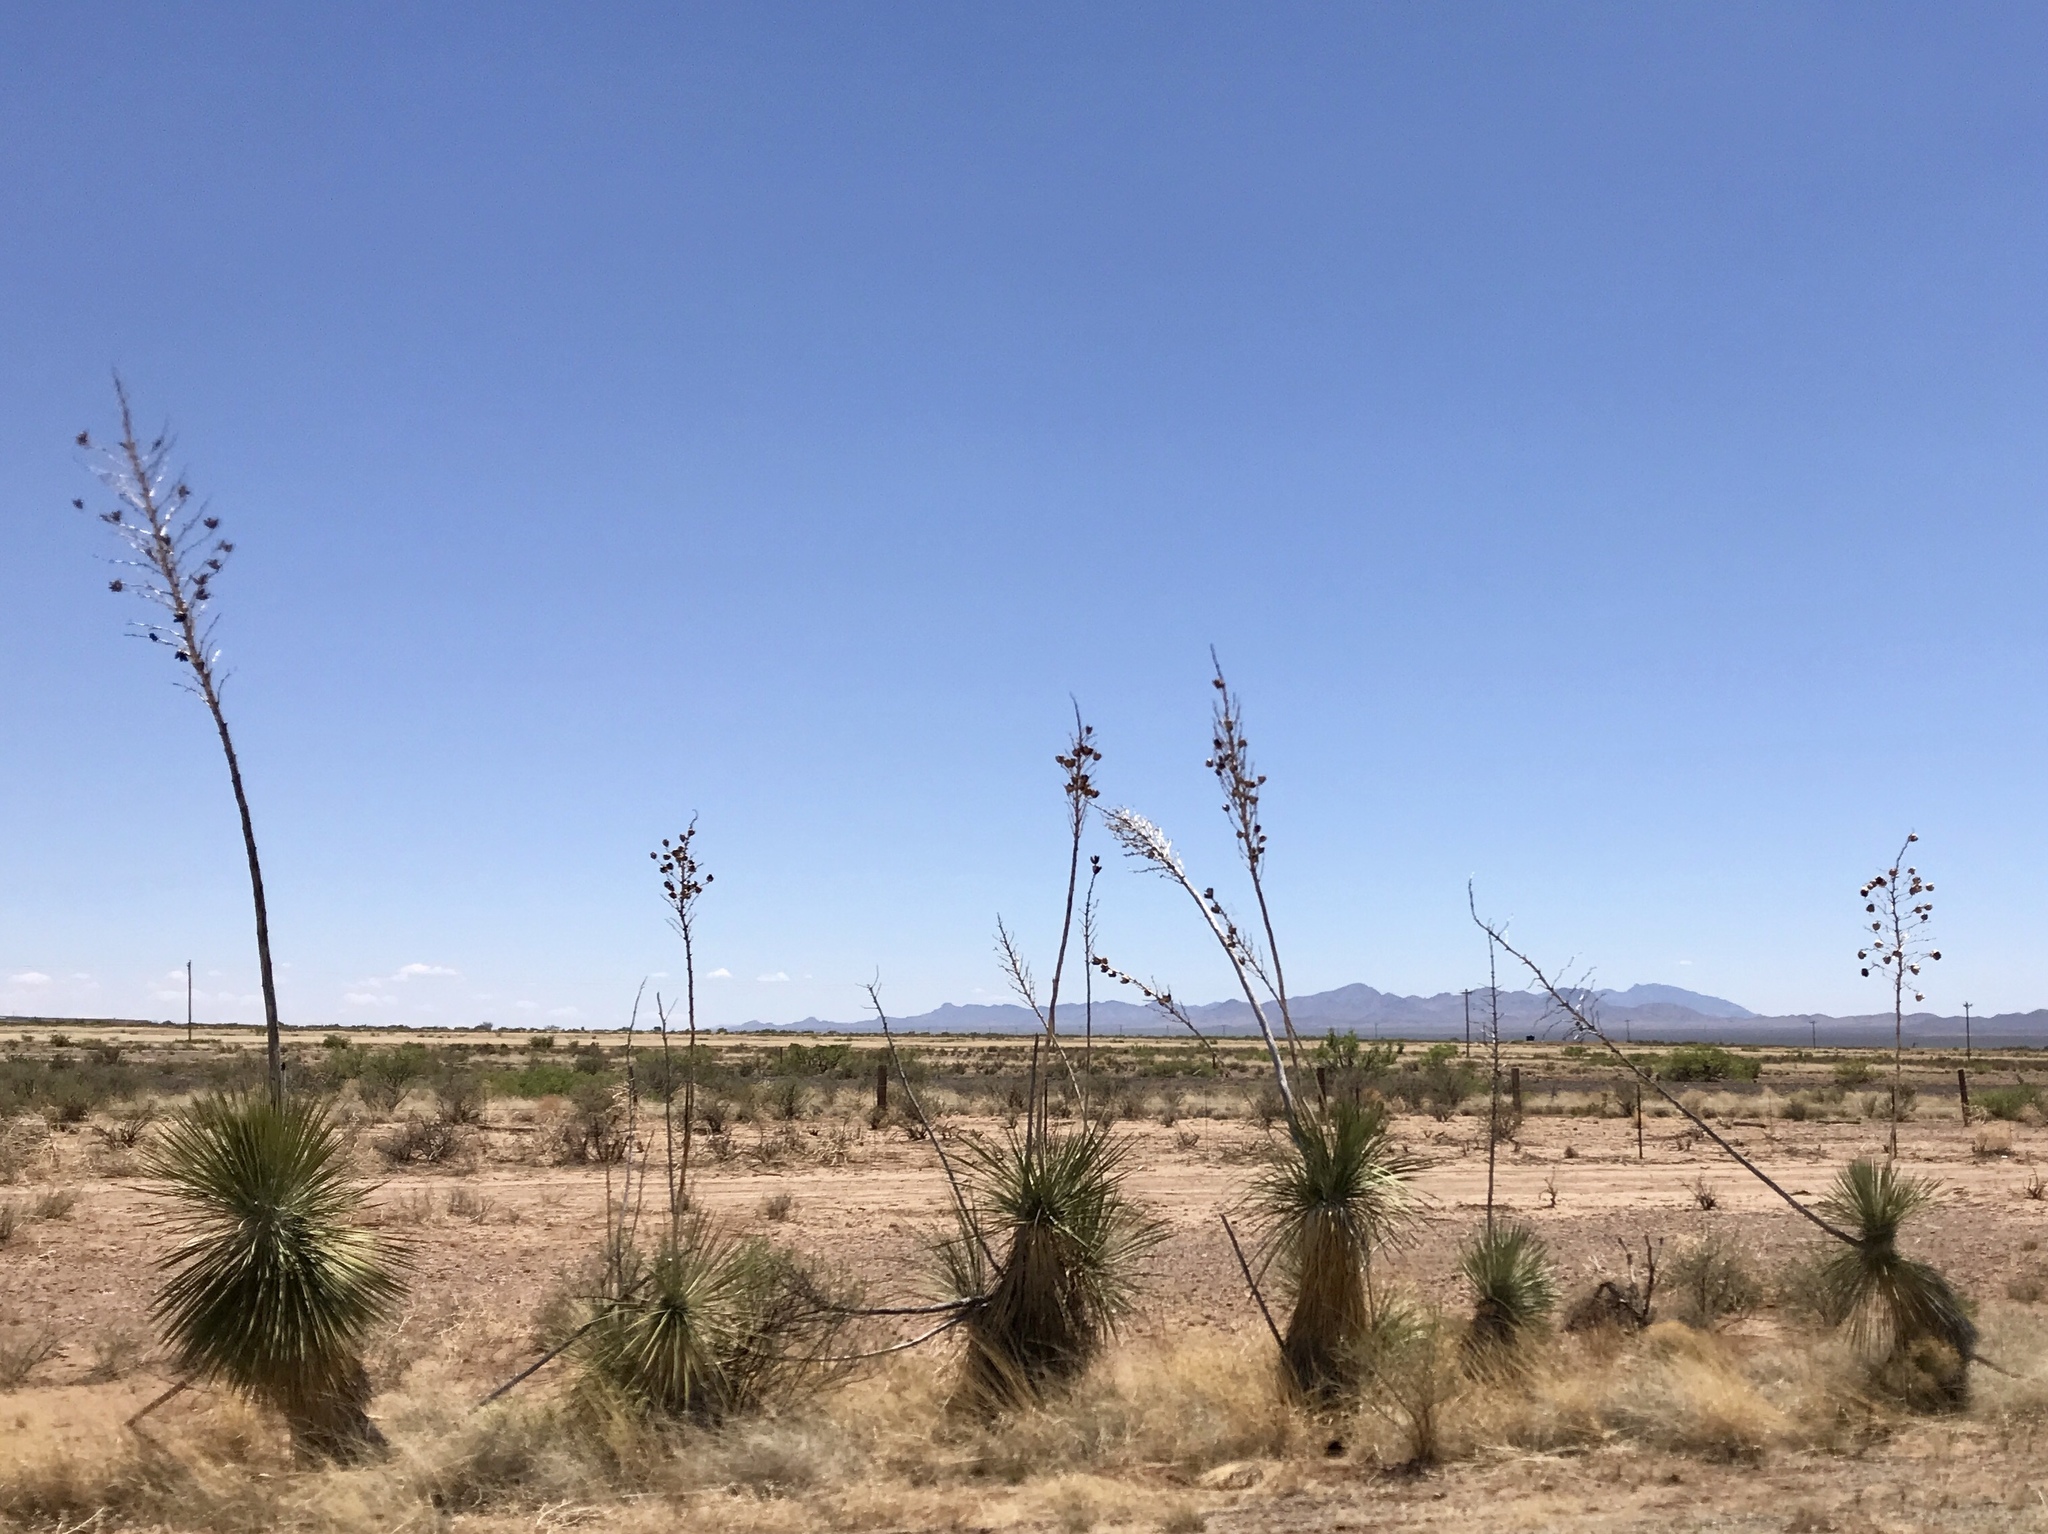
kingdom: Plantae
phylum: Tracheophyta
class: Liliopsida
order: Asparagales
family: Asparagaceae
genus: Yucca
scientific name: Yucca elata
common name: Palmella
